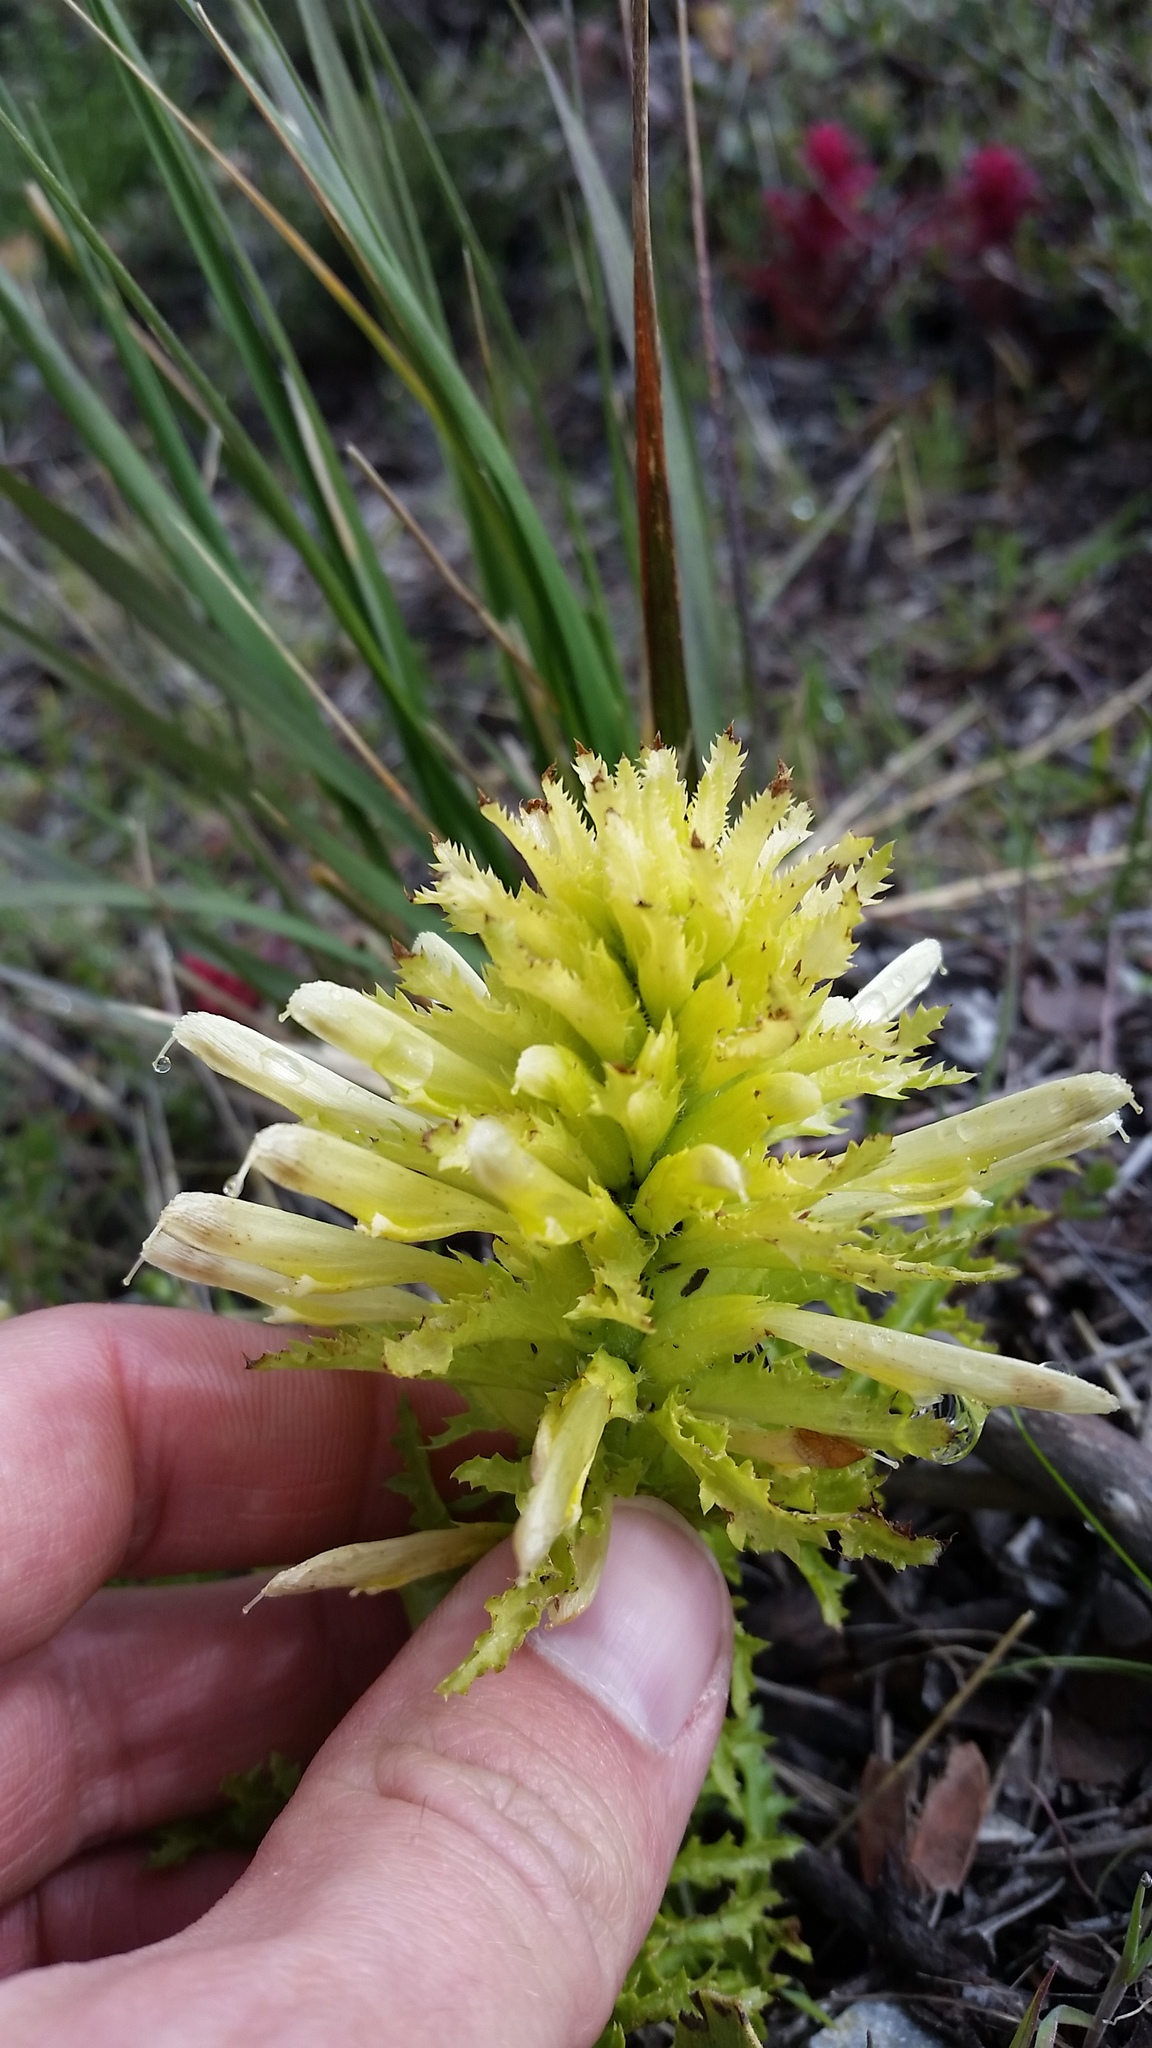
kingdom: Plantae
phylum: Tracheophyta
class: Magnoliopsida
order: Lamiales
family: Orobanchaceae
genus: Pedicularis
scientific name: Pedicularis densiflora
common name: Indian warrior
